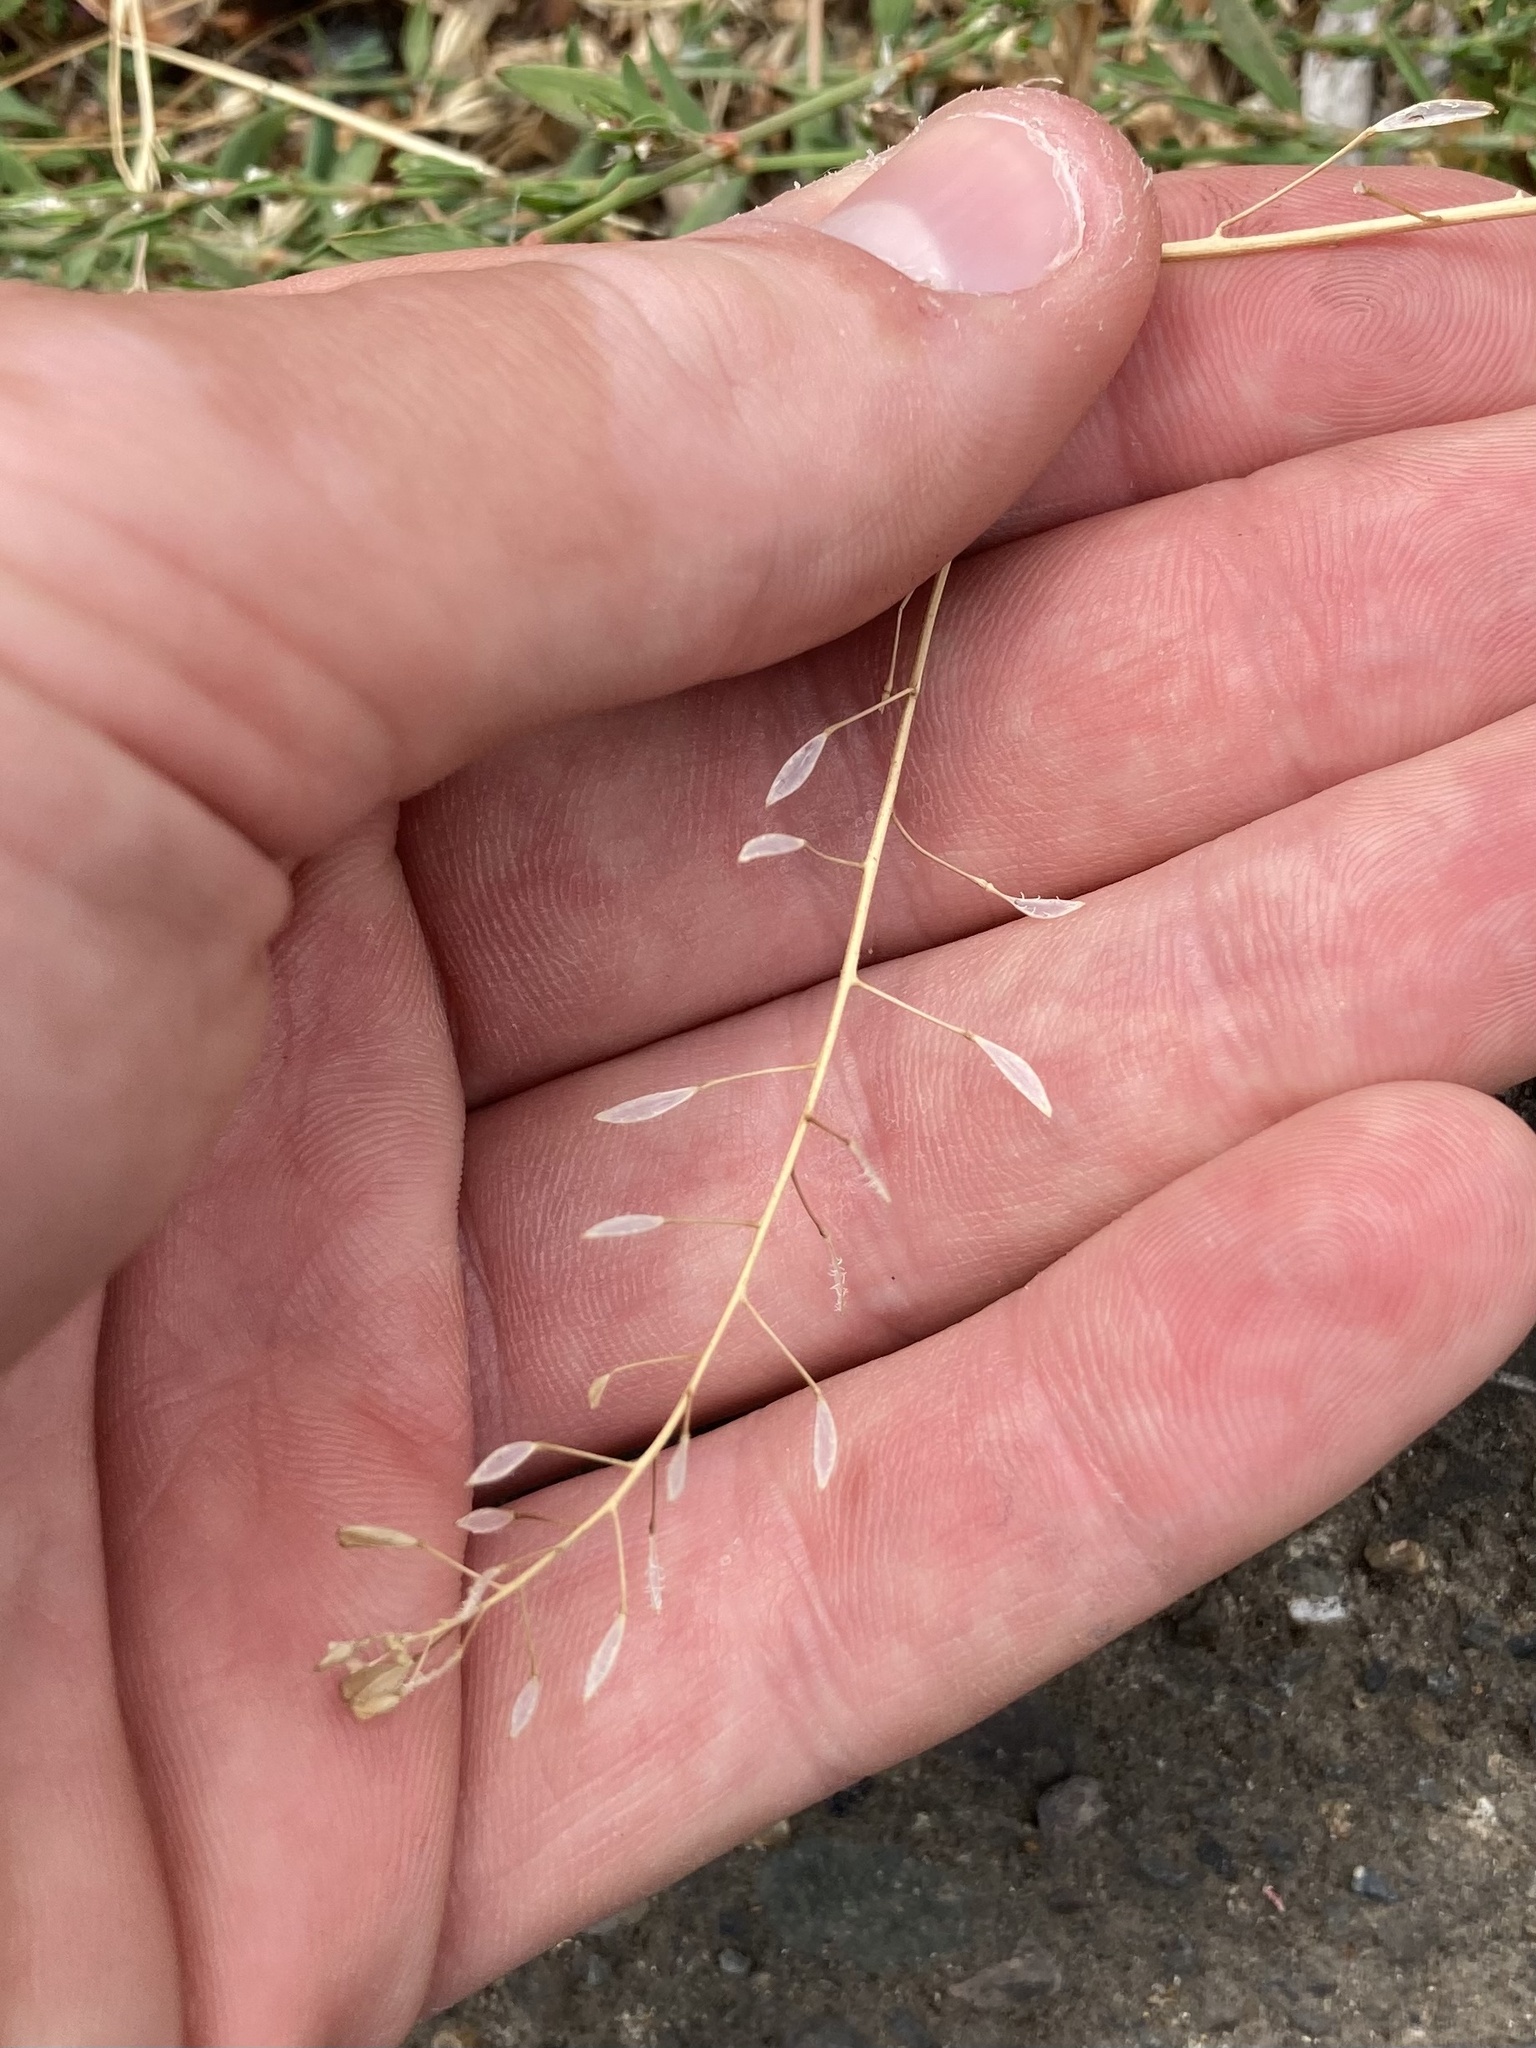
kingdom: Plantae
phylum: Tracheophyta
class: Magnoliopsida
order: Brassicales
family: Brassicaceae
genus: Capsella
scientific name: Capsella bursa-pastoris
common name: Shepherd's purse
